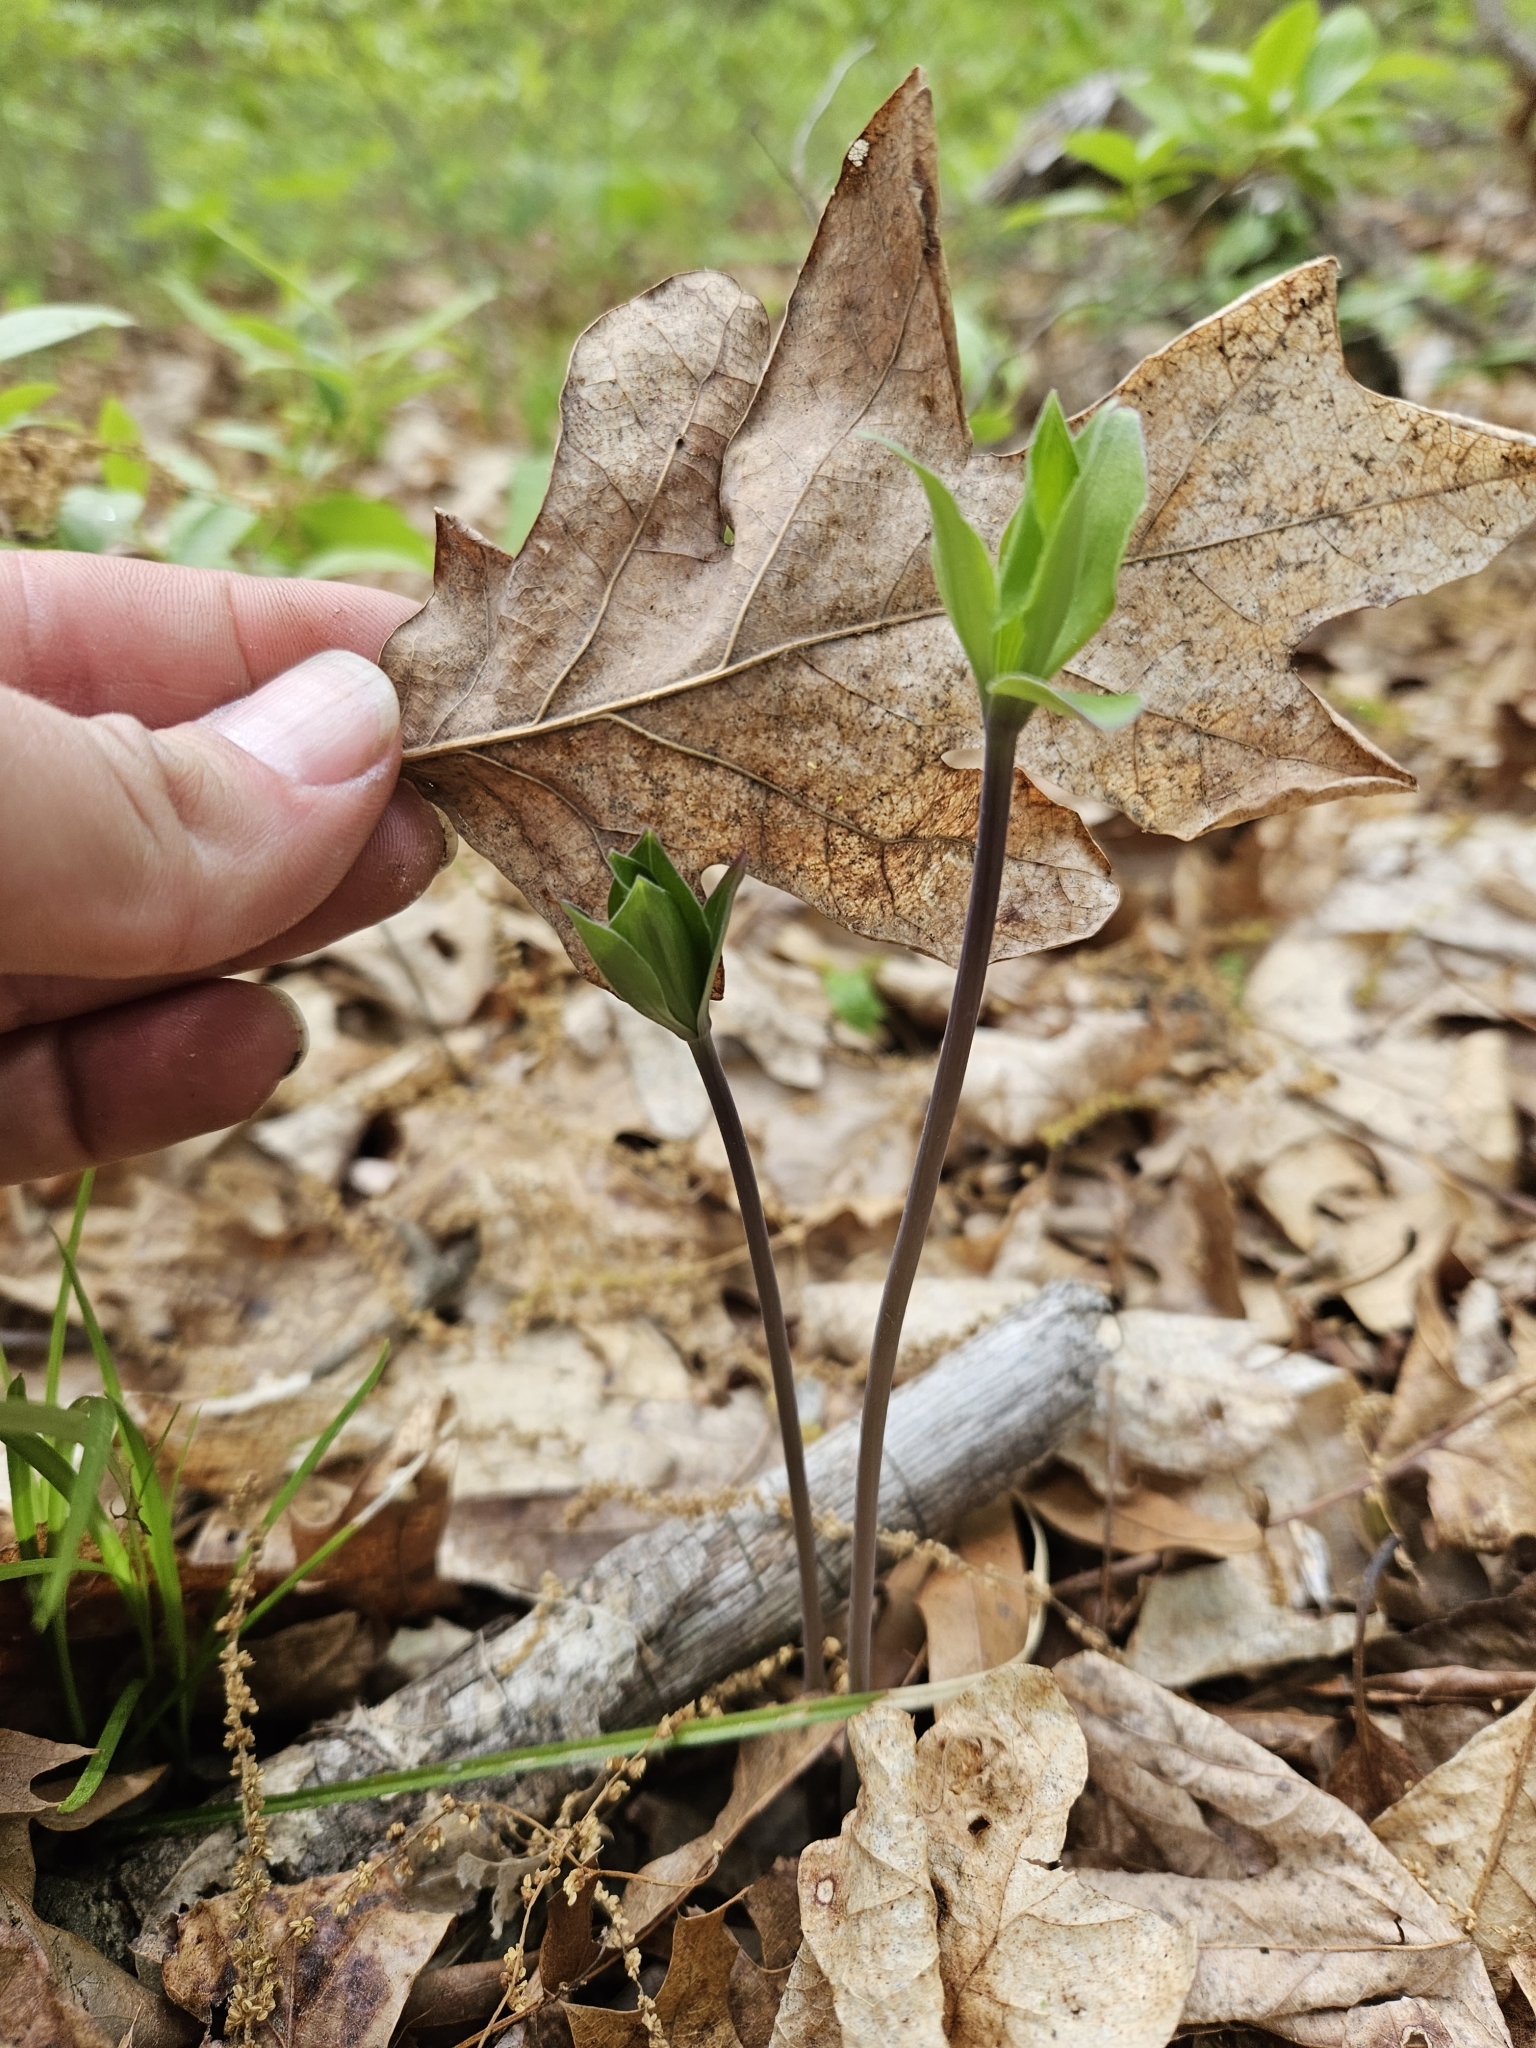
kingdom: Plantae
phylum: Tracheophyta
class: Liliopsida
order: Asparagales
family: Orchidaceae
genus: Isotria
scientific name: Isotria verticillata
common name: Large whorled pogonia
